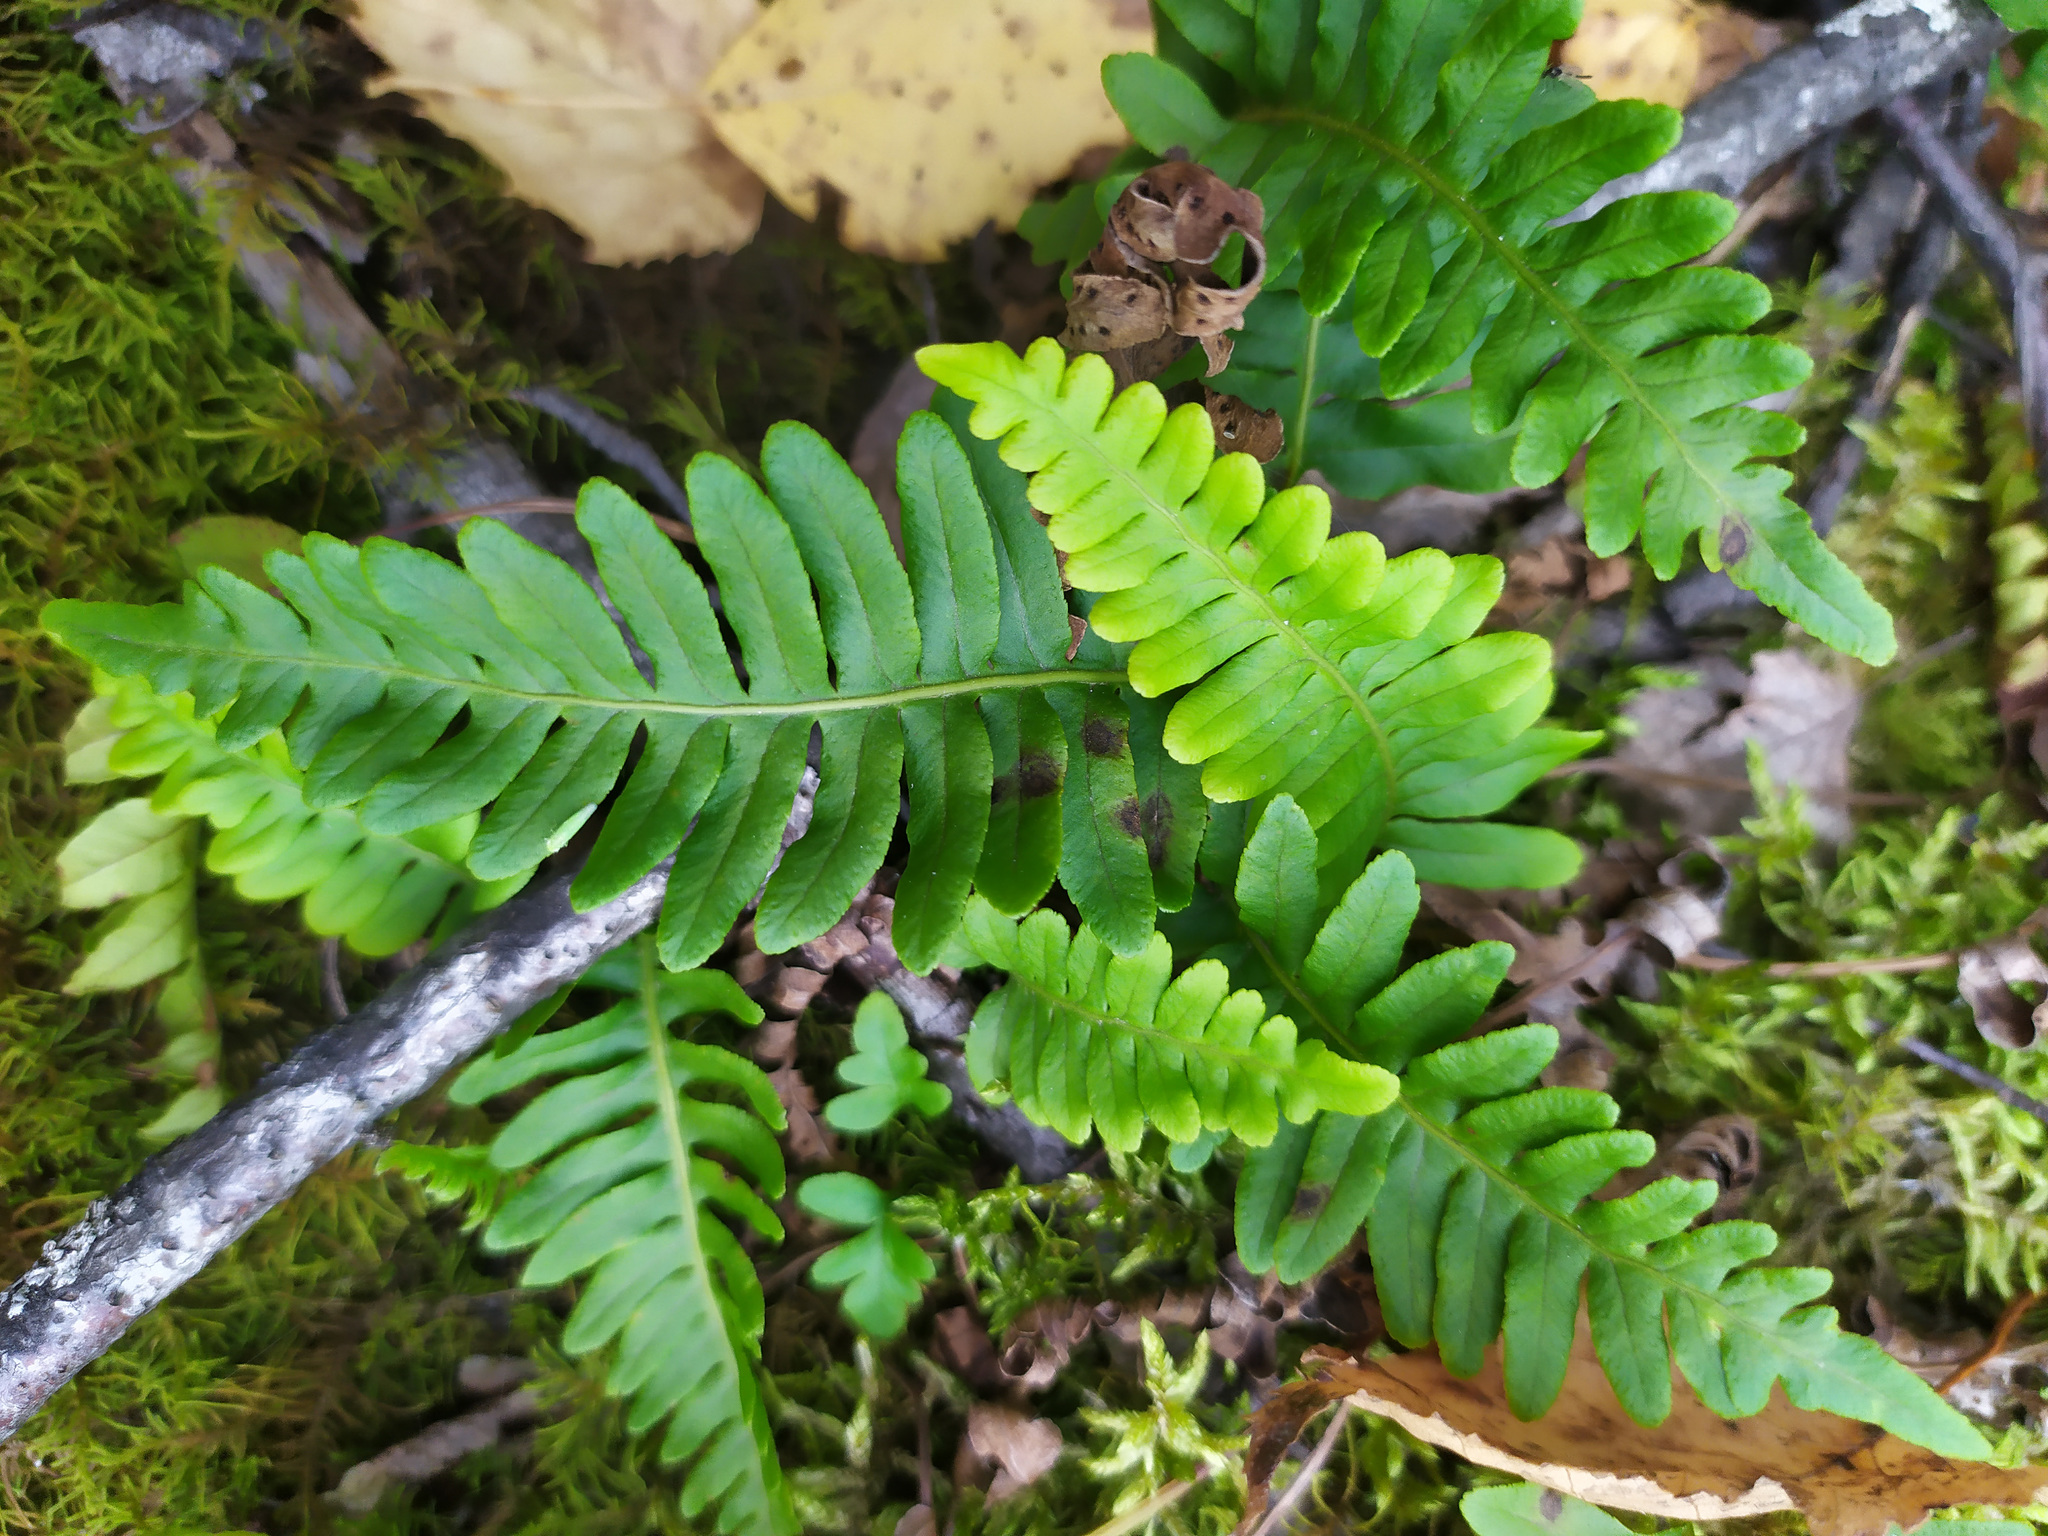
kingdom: Plantae
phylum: Tracheophyta
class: Polypodiopsida
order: Polypodiales
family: Polypodiaceae
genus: Polypodium
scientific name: Polypodium vulgare
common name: Common polypody
